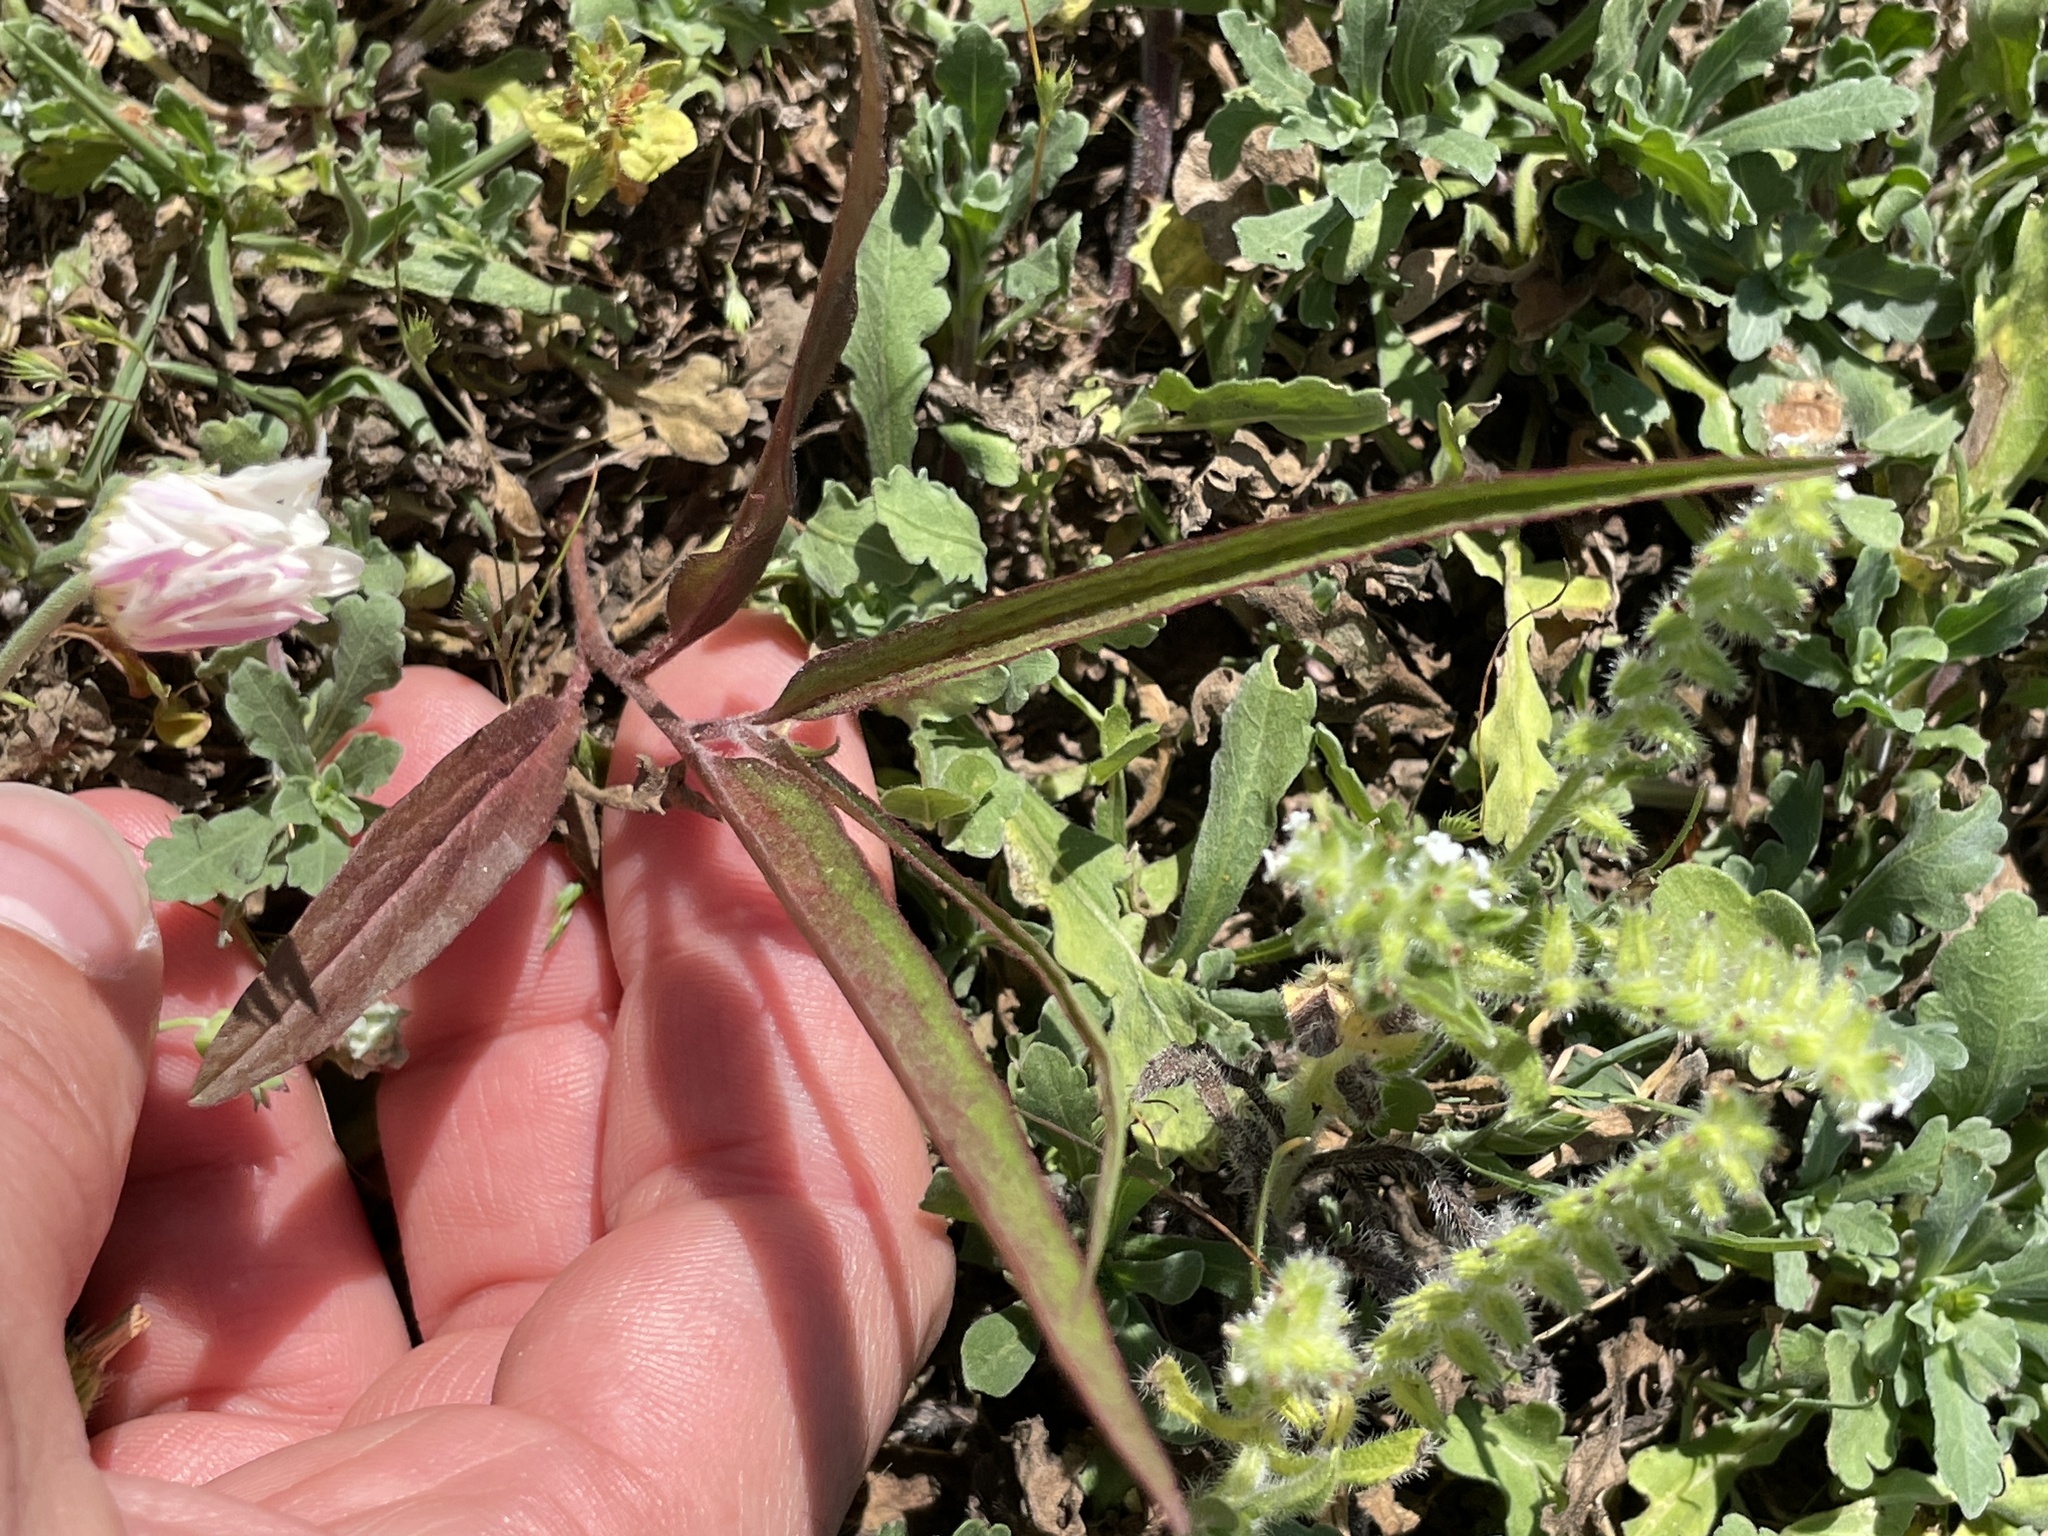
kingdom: Plantae
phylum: Tracheophyta
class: Magnoliopsida
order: Piperales
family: Aristolochiaceae
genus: Aristolochia
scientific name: Aristolochia erecta
